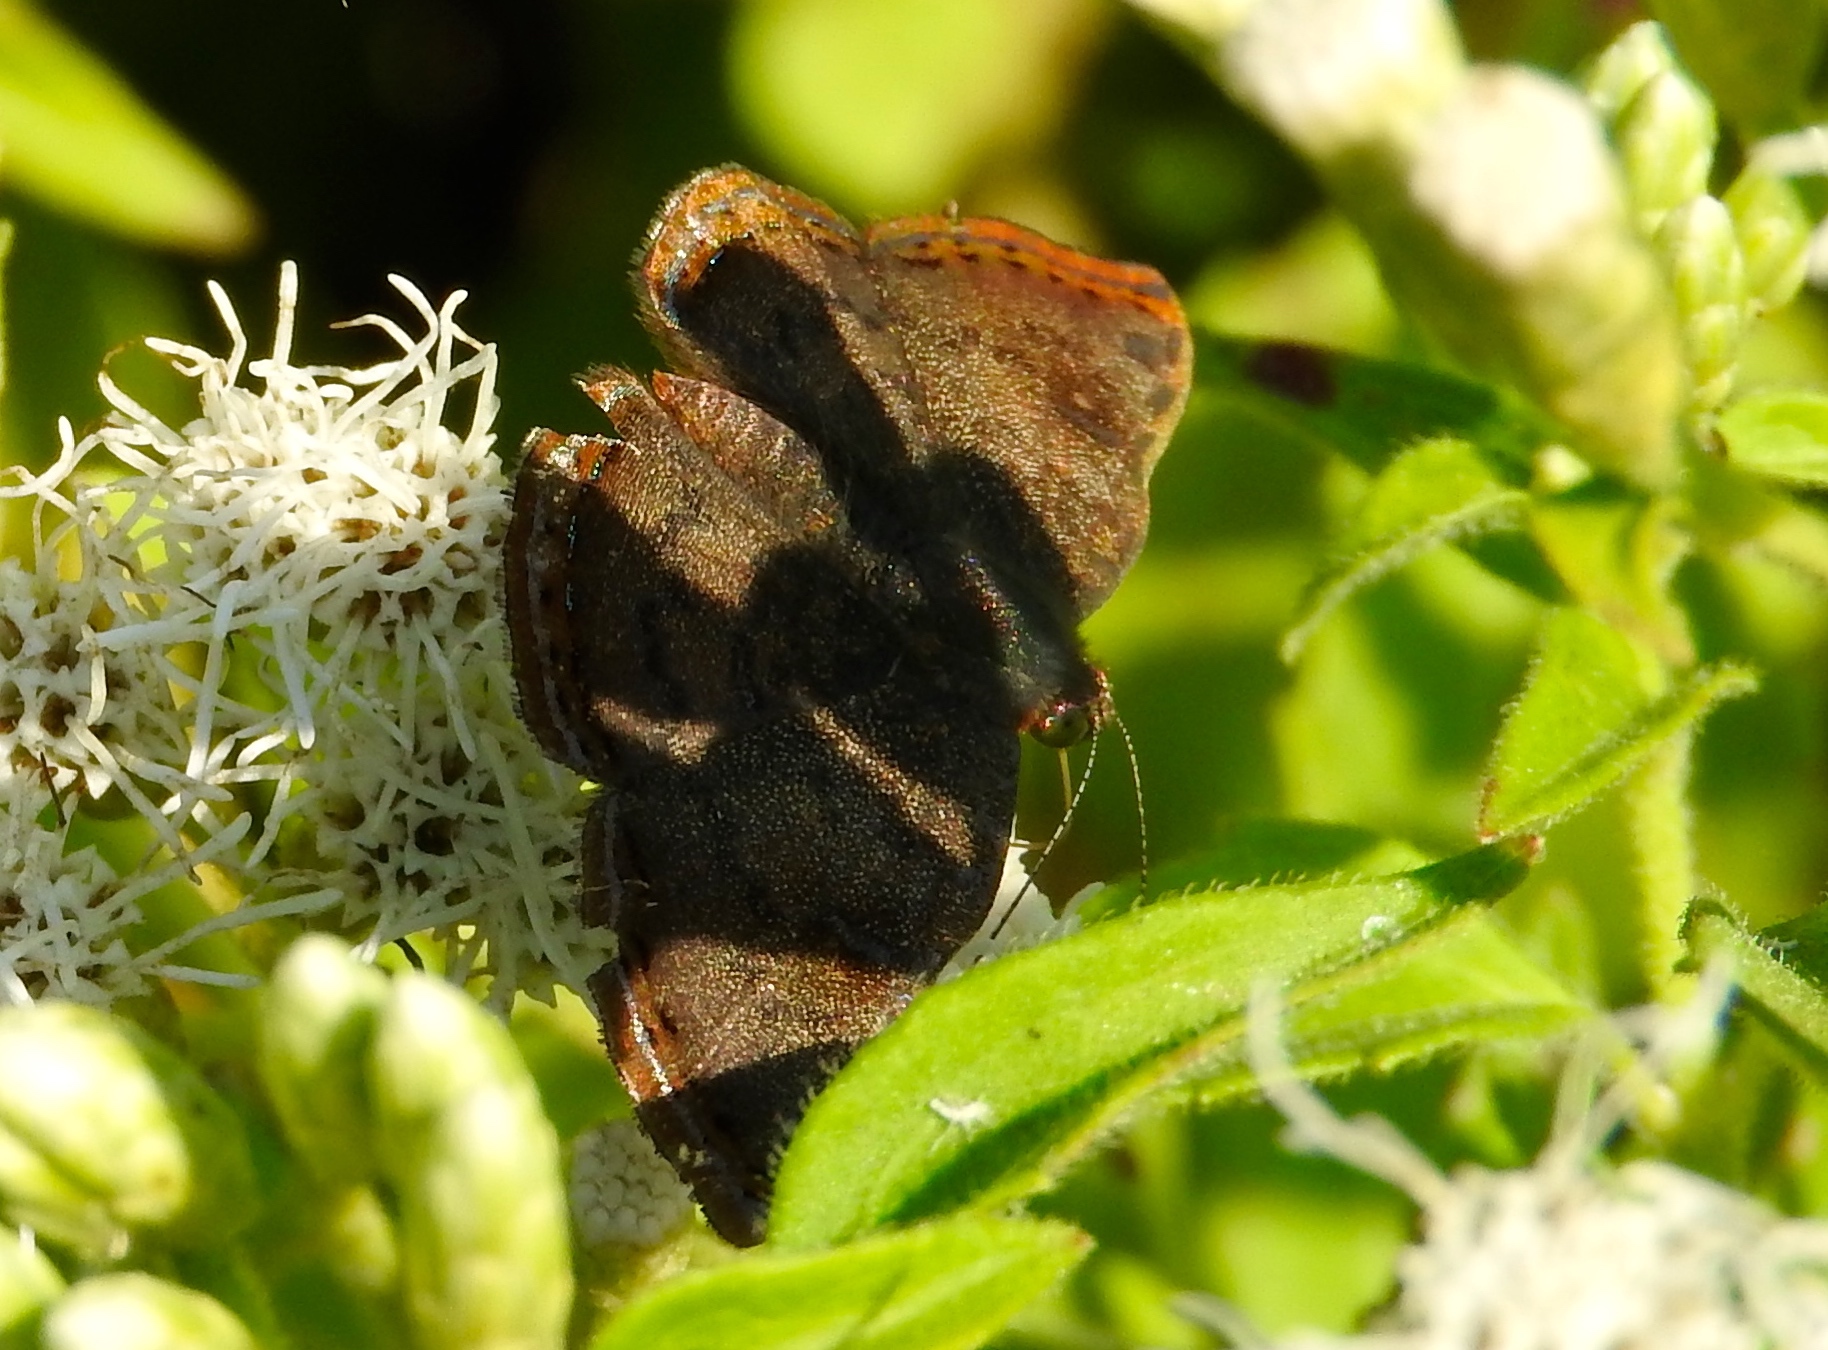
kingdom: Animalia
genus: Caria
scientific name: Caria ino
